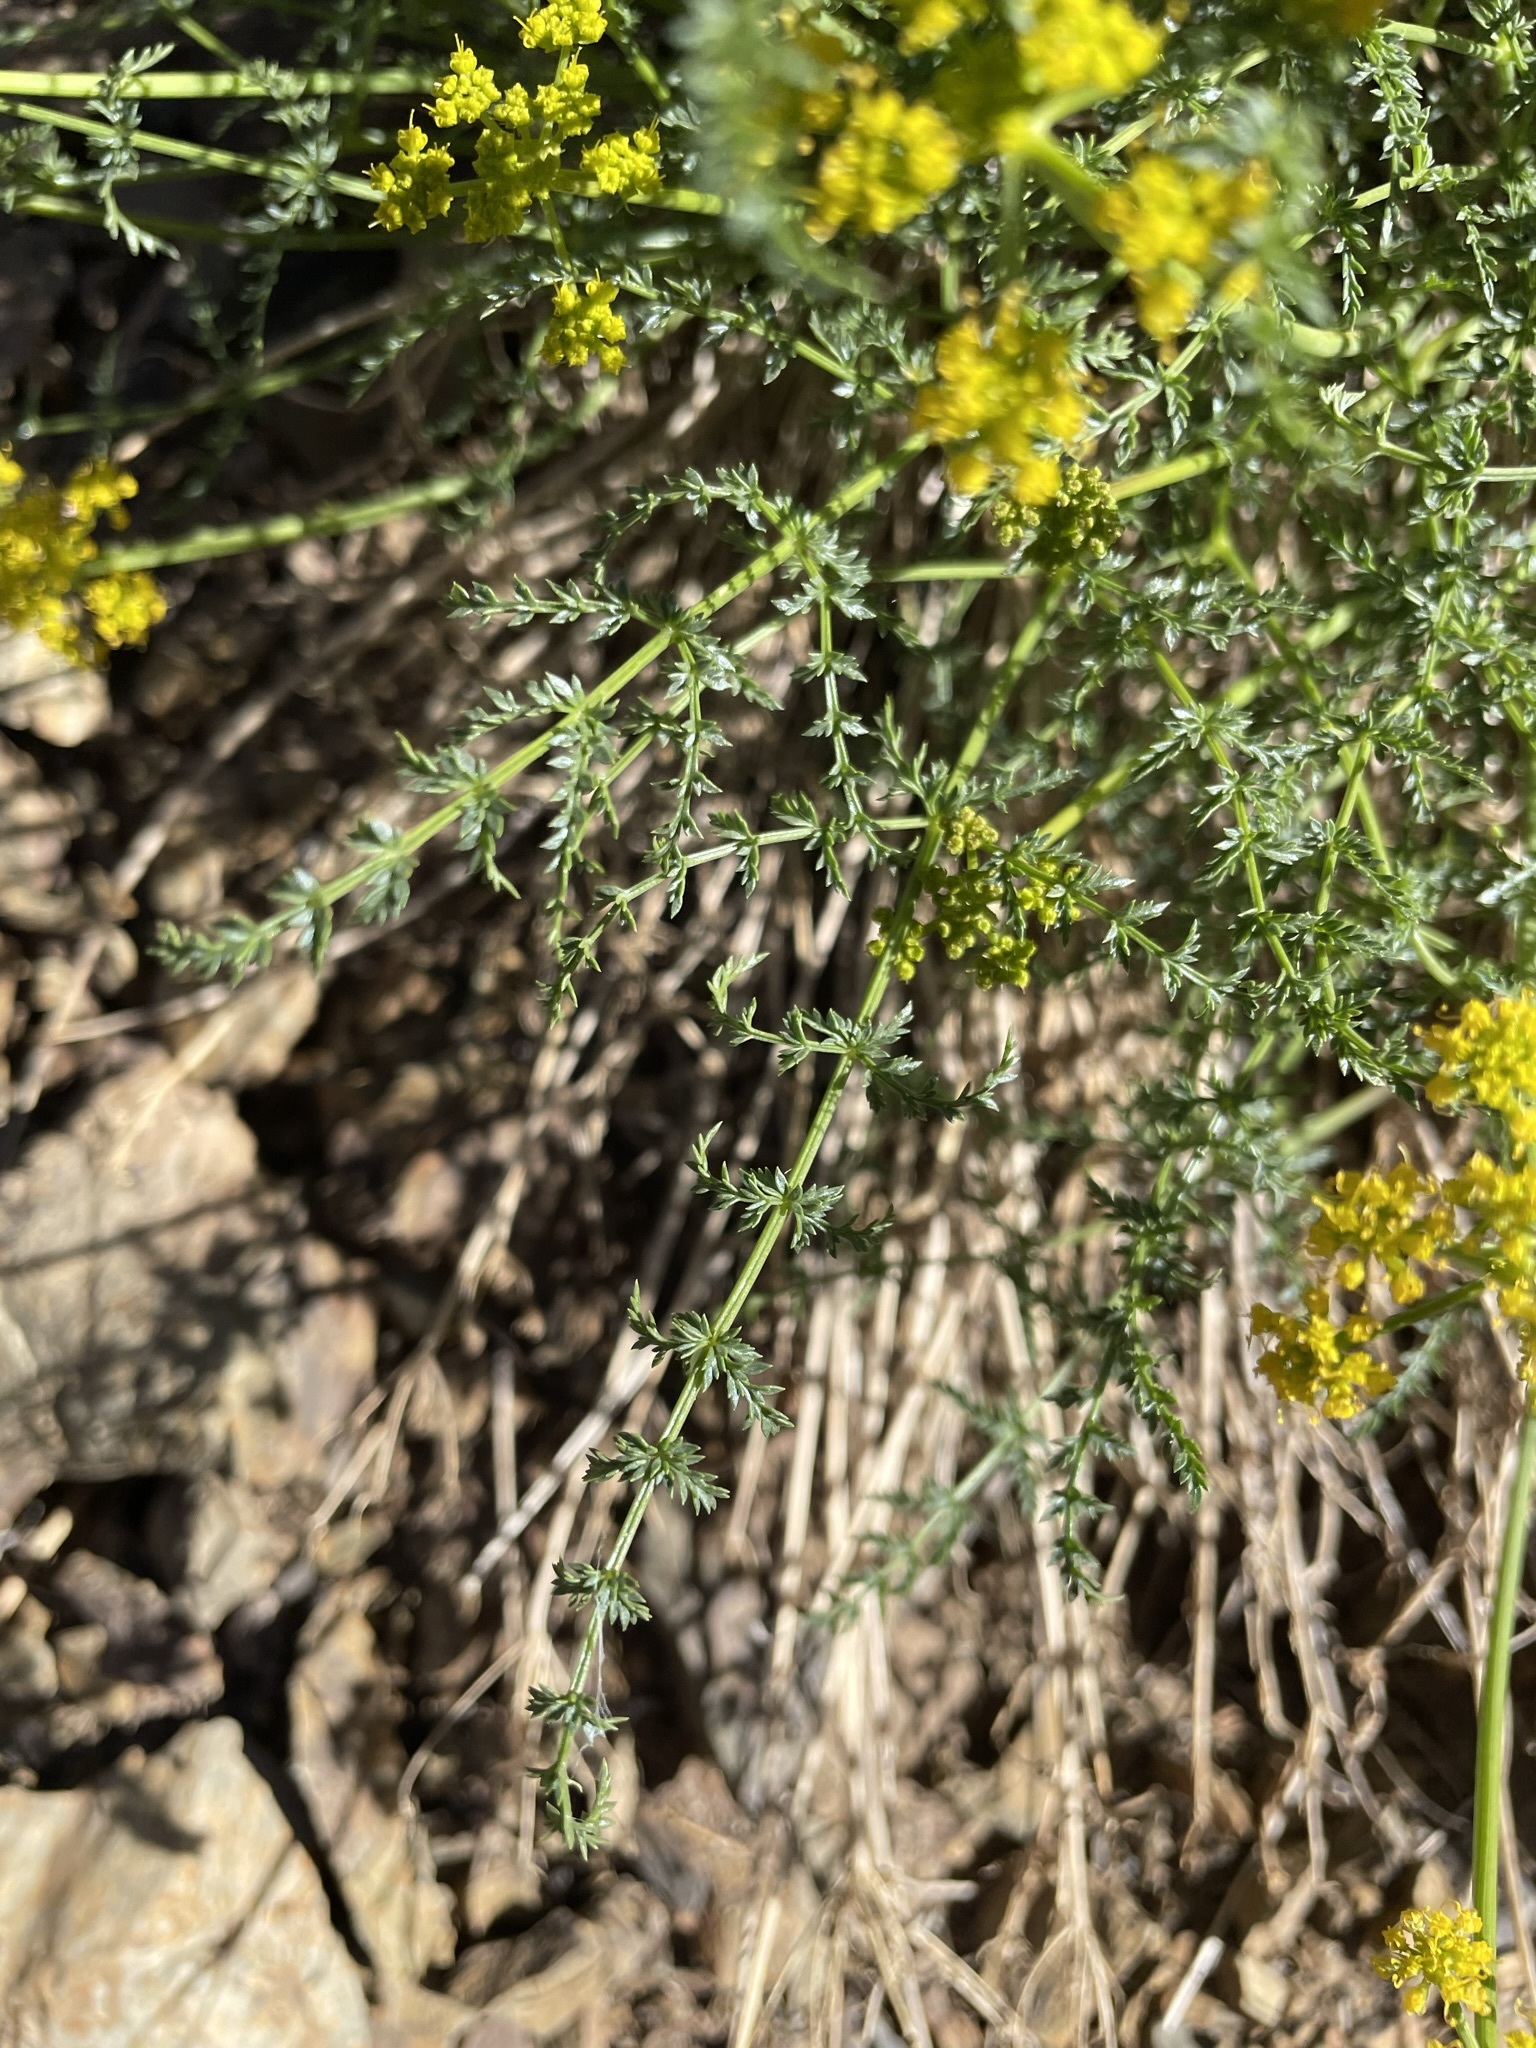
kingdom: Plantae
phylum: Tracheophyta
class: Magnoliopsida
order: Apiales
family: Apiaceae
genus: Pteryxia
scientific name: Pteryxia petraea
